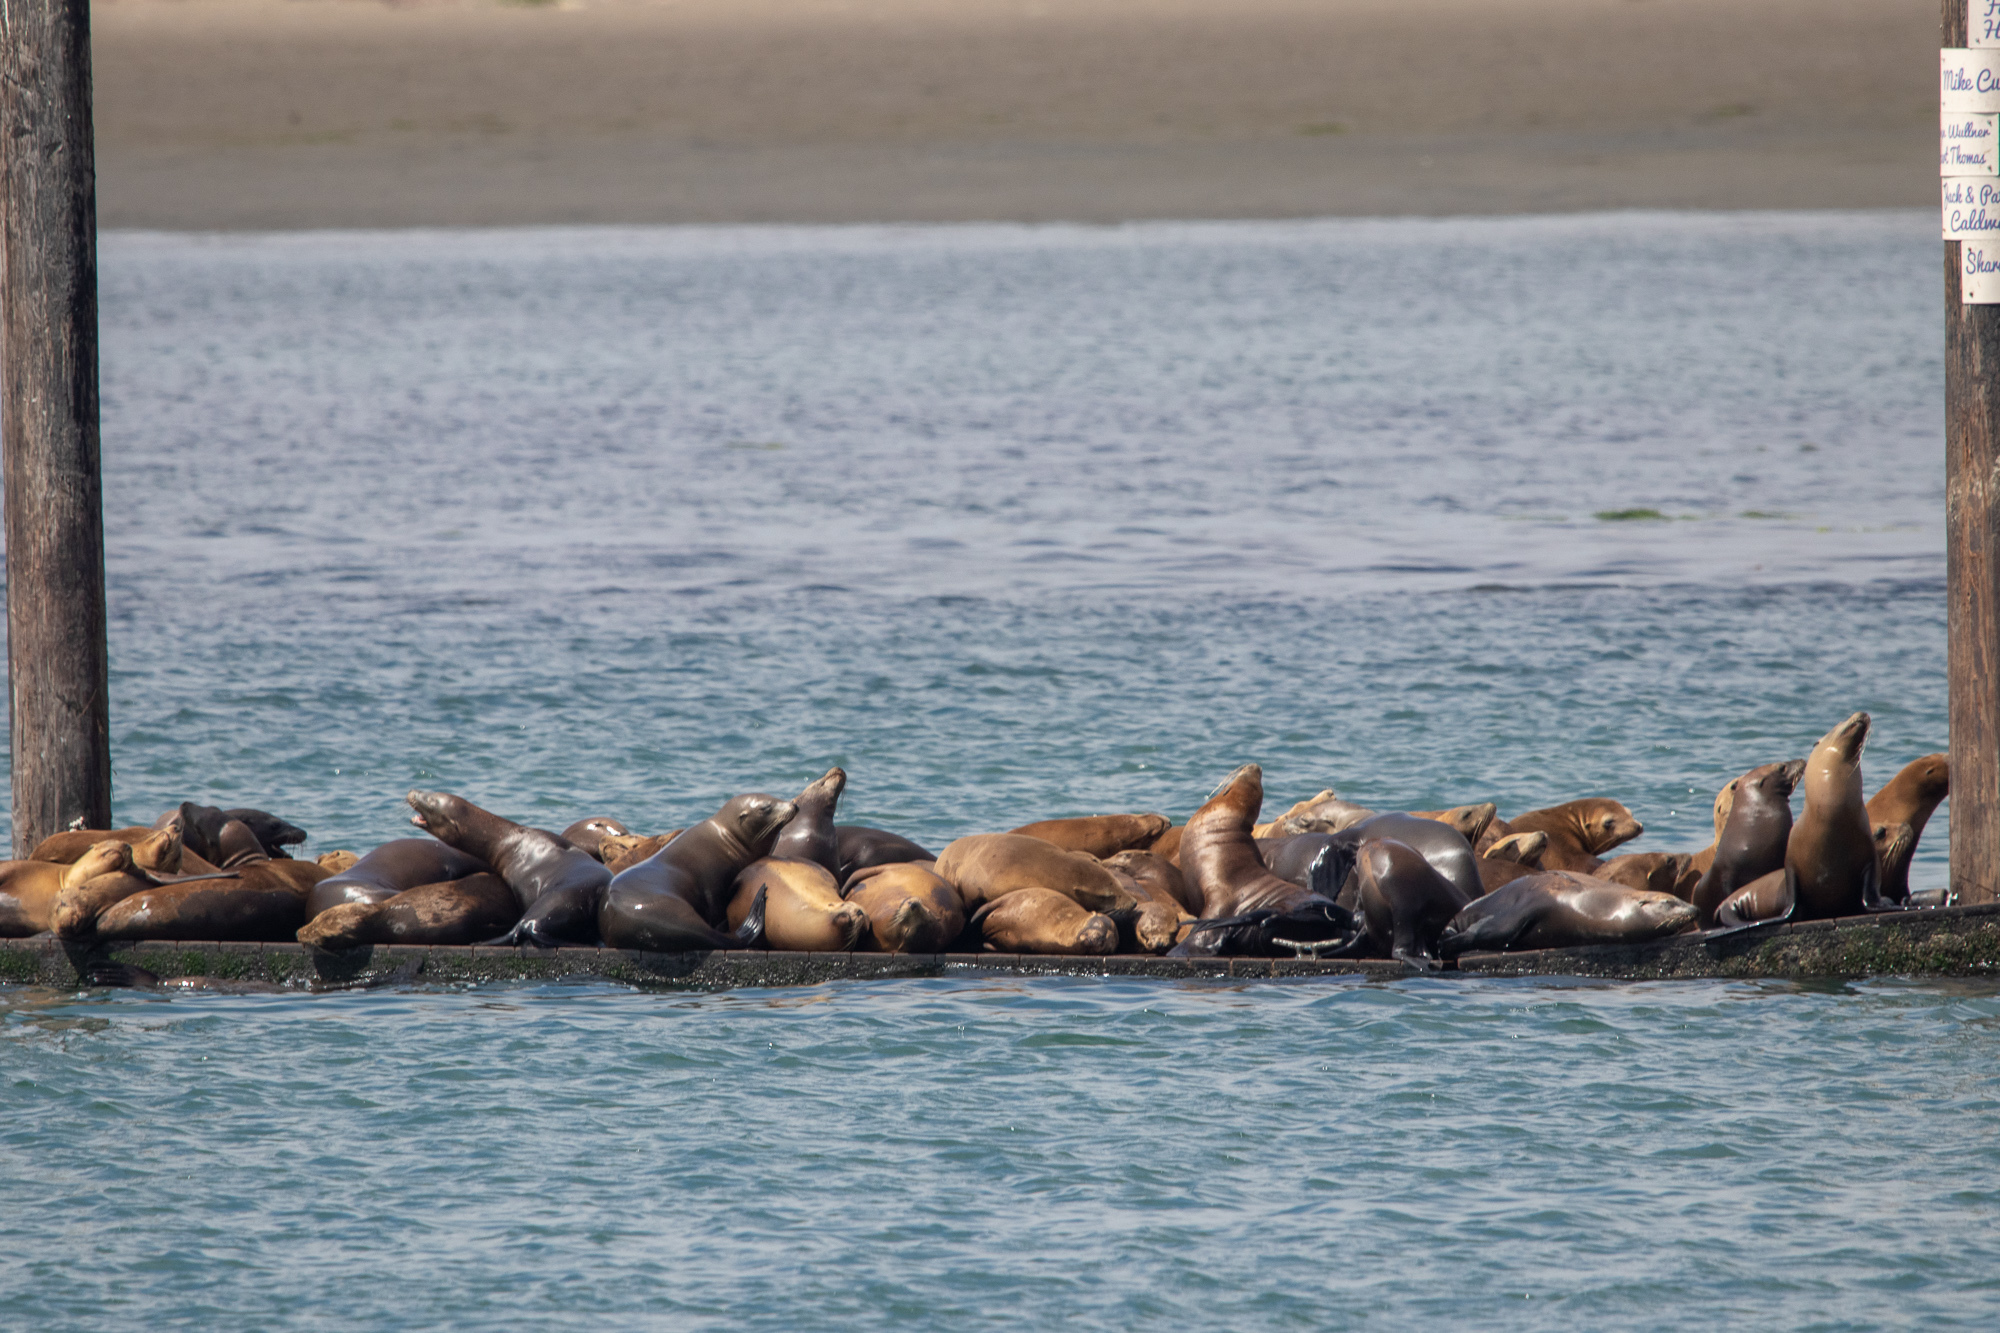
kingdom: Animalia
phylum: Chordata
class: Mammalia
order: Carnivora
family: Otariidae
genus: Zalophus
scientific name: Zalophus californianus
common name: California sea lion
